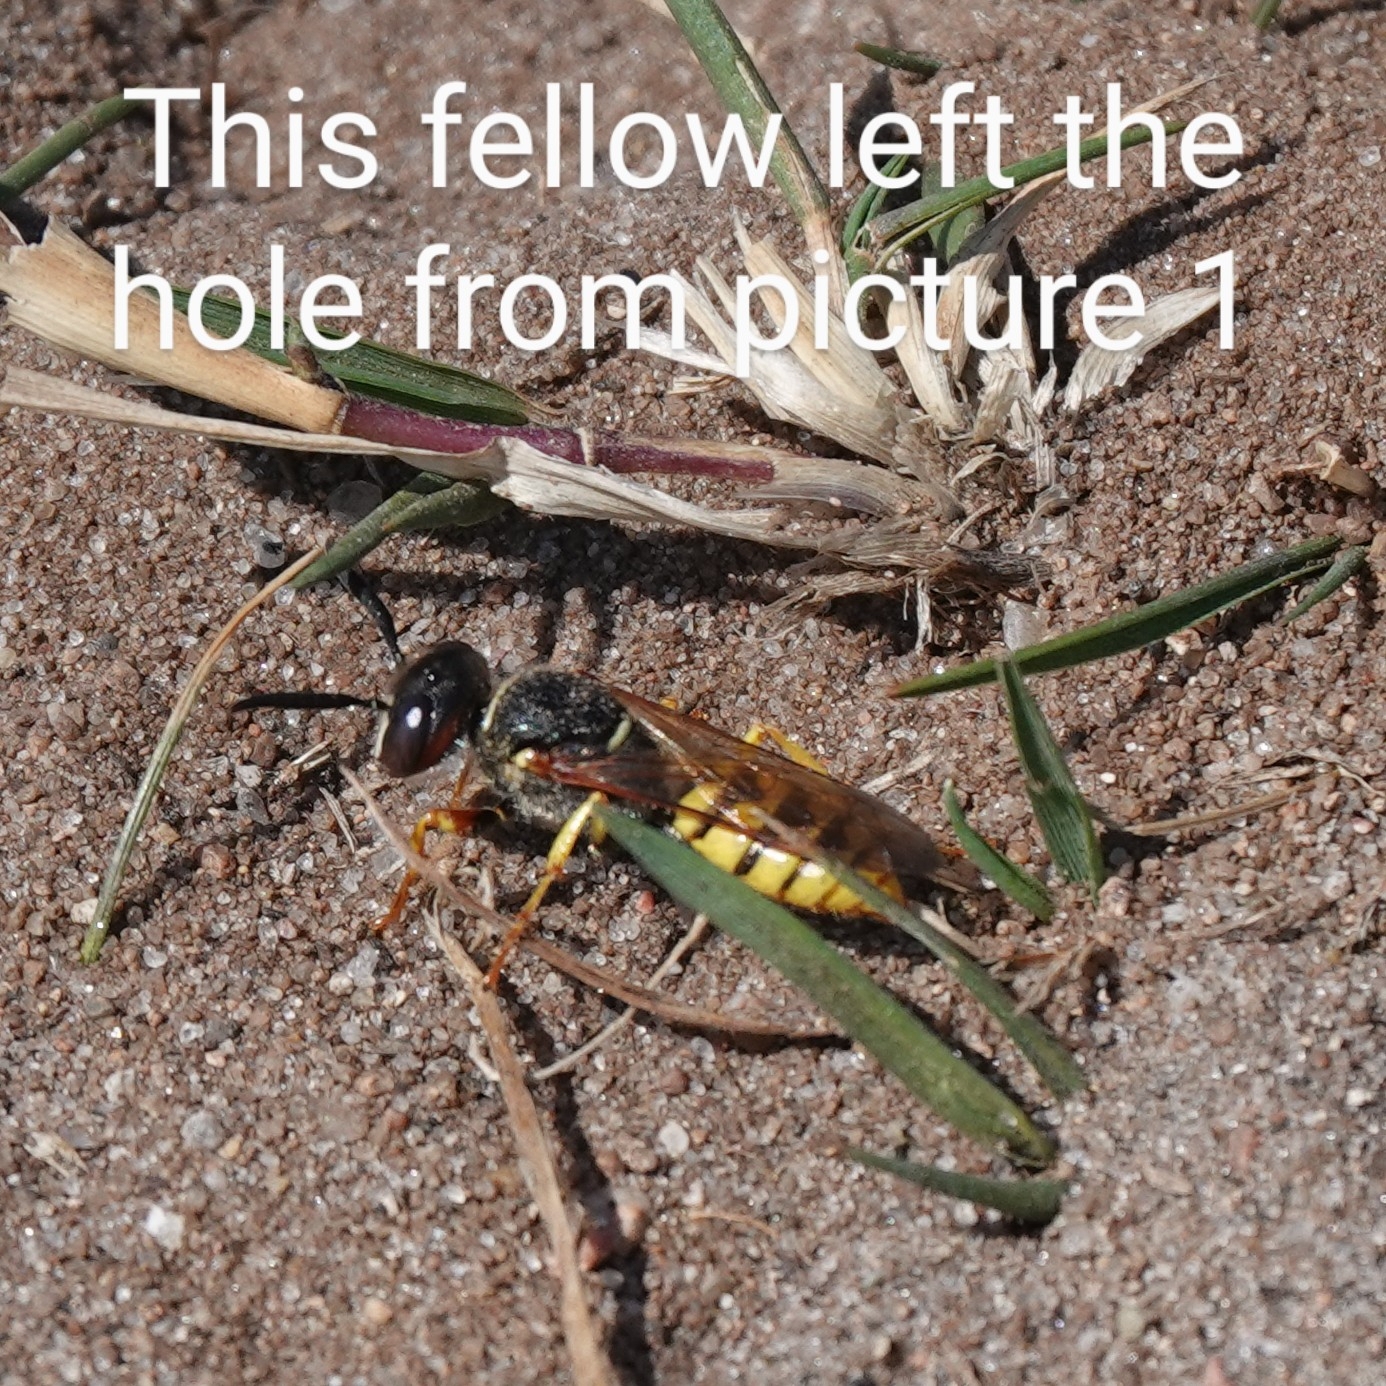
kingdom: Animalia
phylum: Arthropoda
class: Insecta
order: Hymenoptera
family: Chrysididae
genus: Hedychrum
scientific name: Hedychrum rutilans
